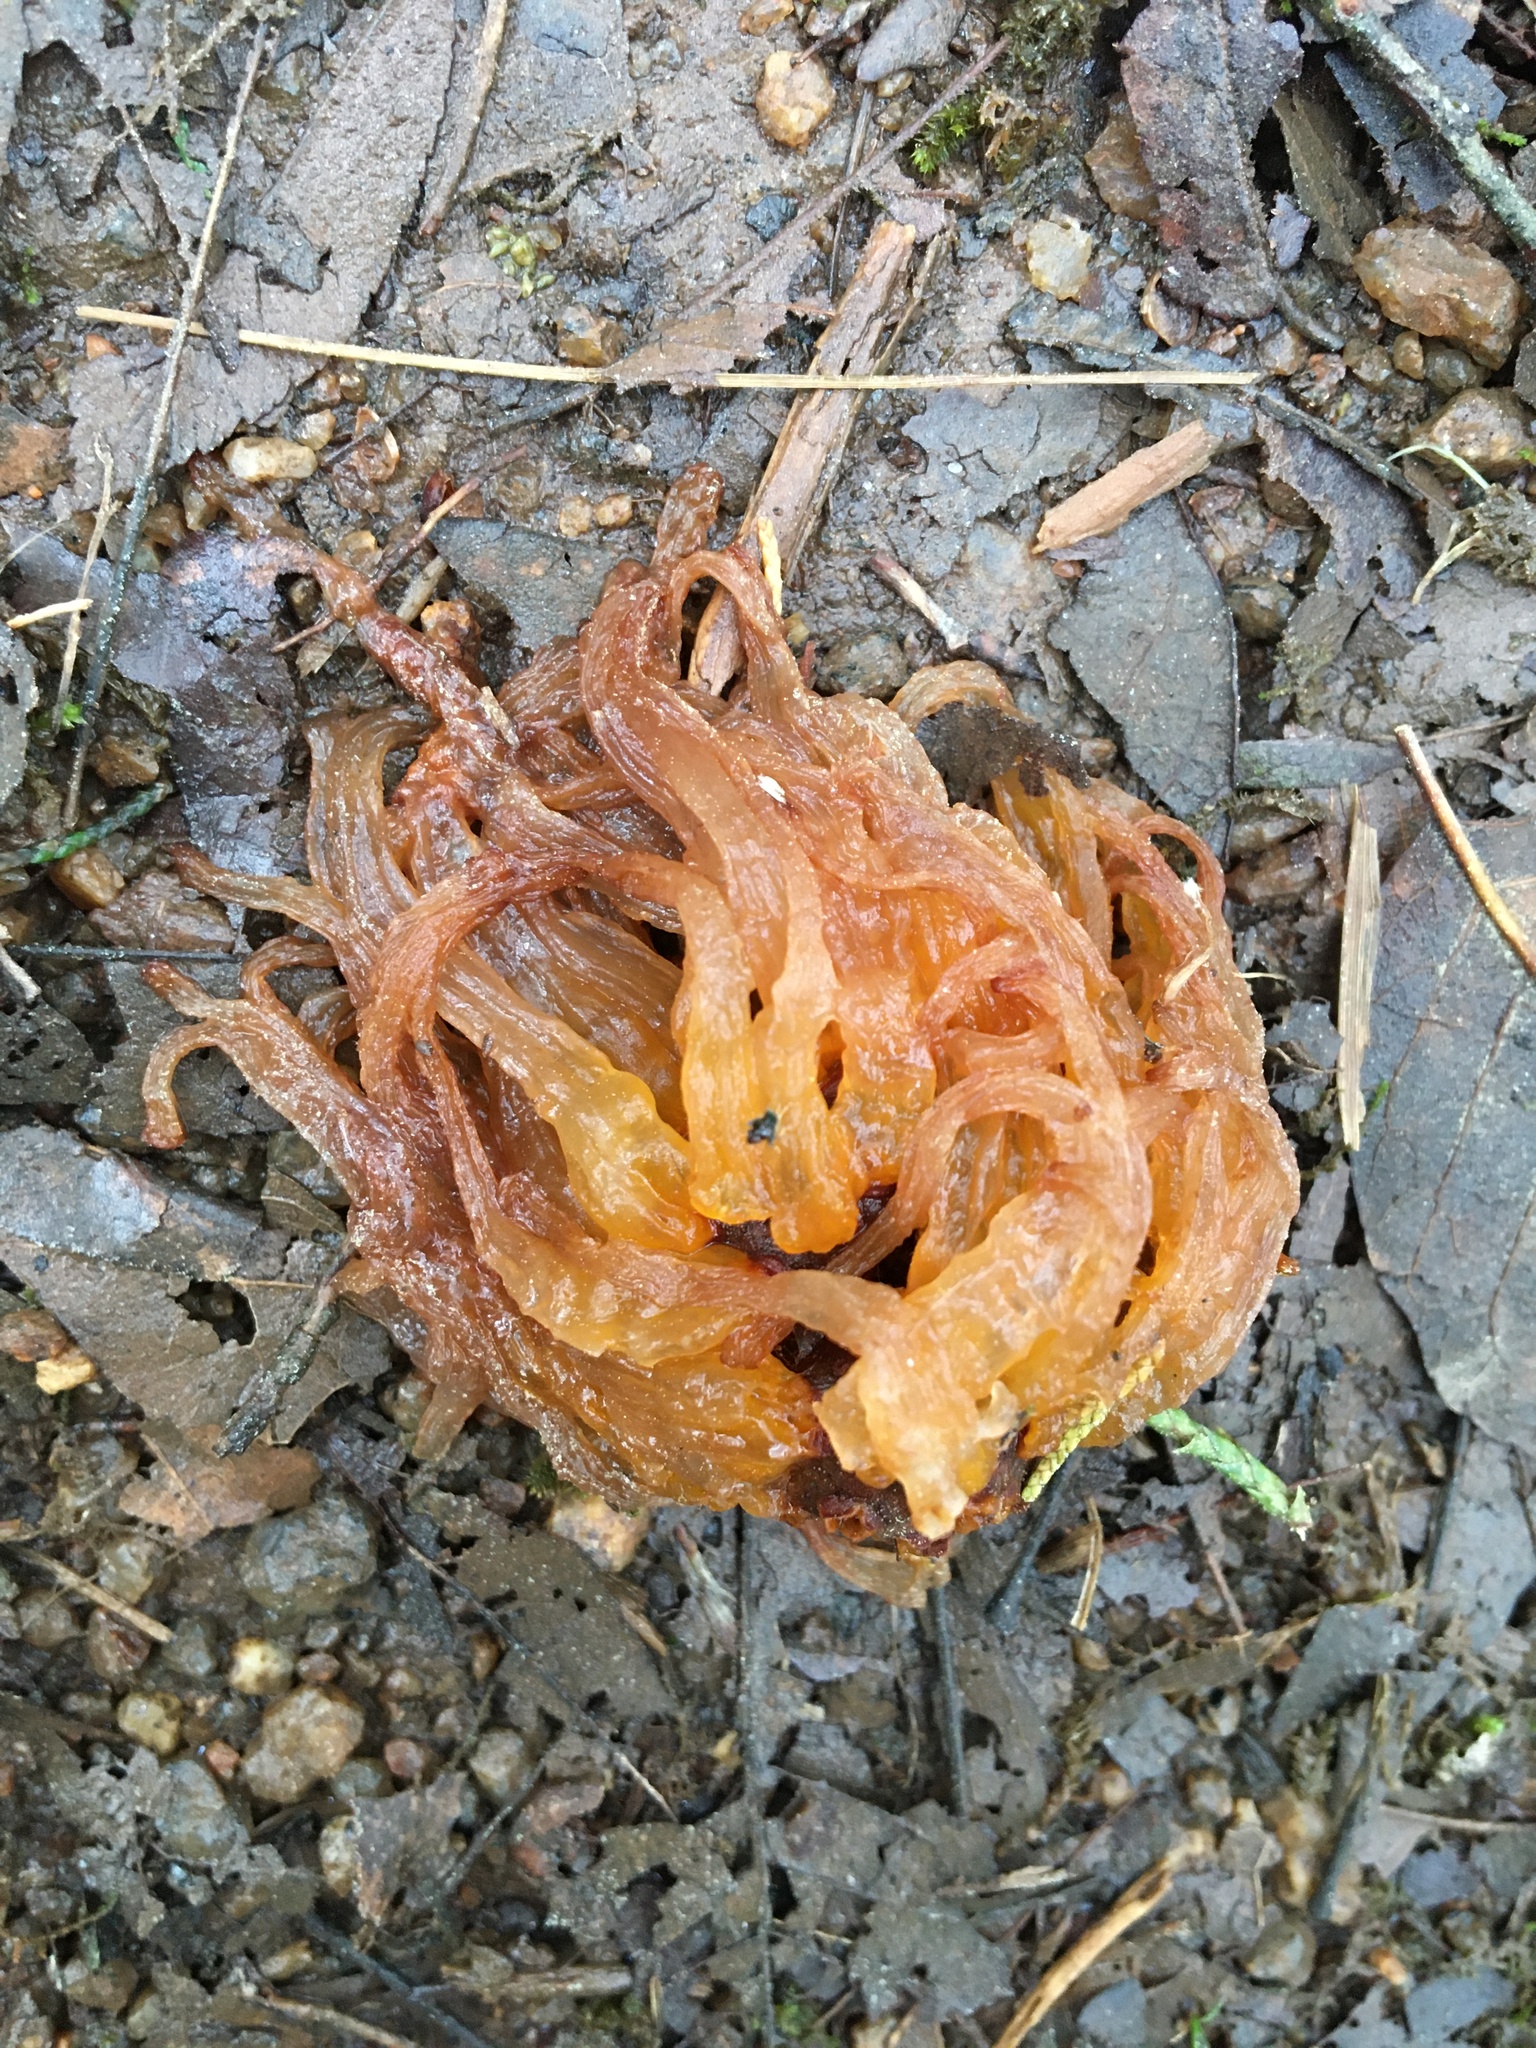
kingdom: Fungi
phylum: Basidiomycota
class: Pucciniomycetes
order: Pucciniales
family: Gymnosporangiaceae
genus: Gymnosporangium
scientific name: Gymnosporangium juniperi-virginianae
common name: Juniper-apple rust
